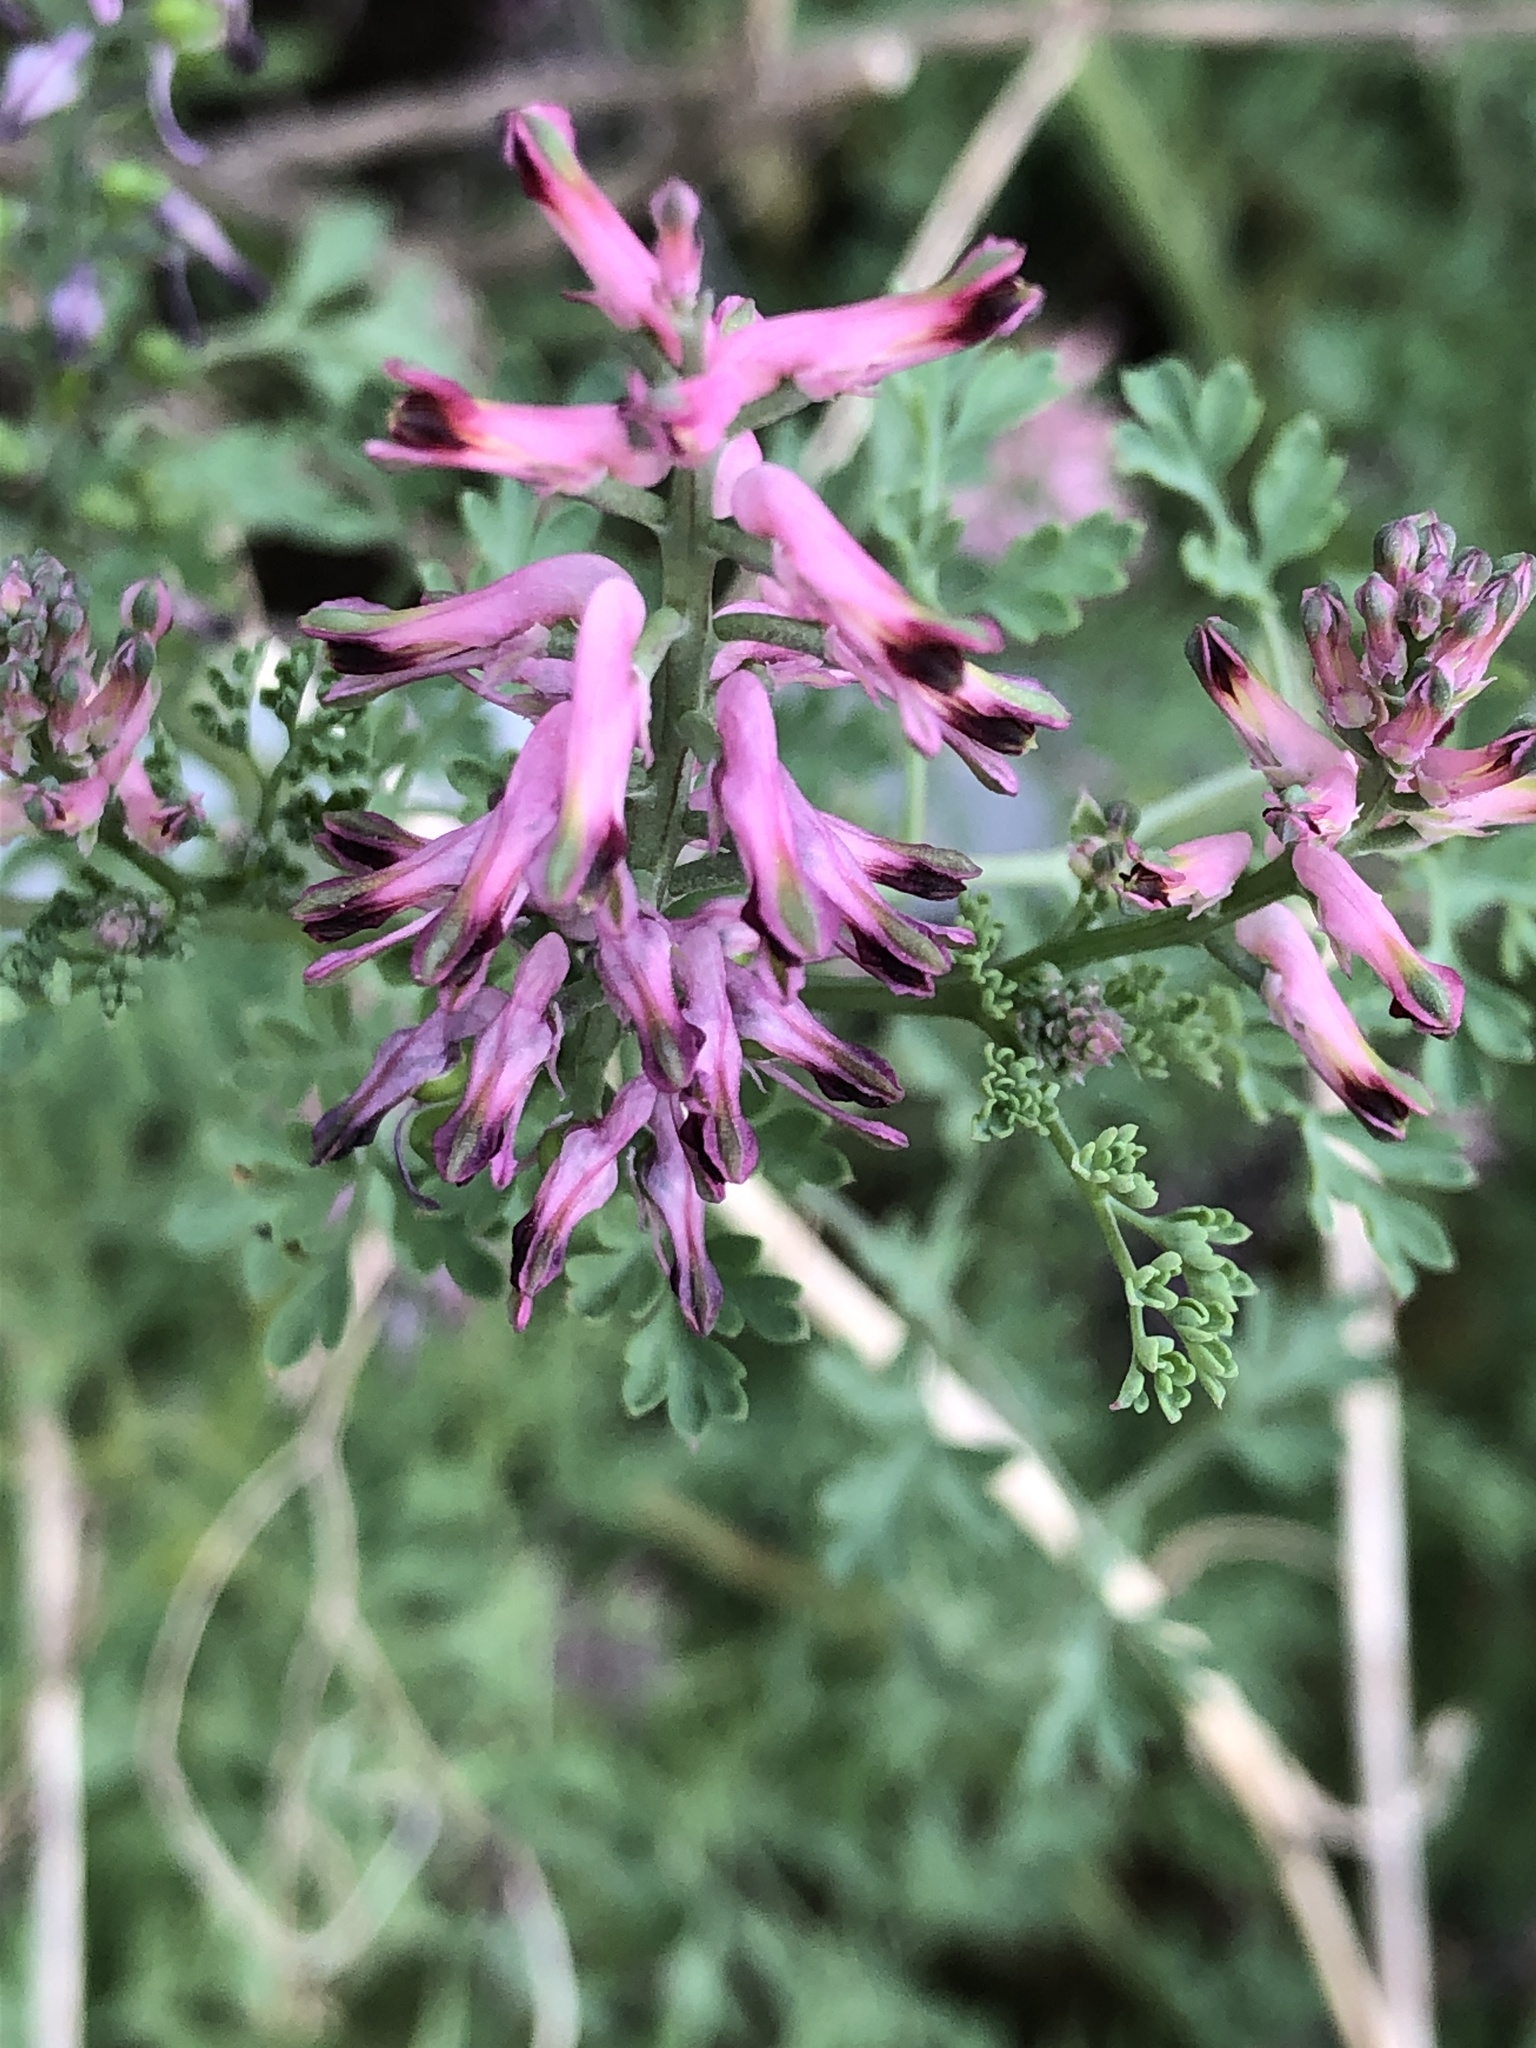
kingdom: Plantae
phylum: Tracheophyta
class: Magnoliopsida
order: Ranunculales
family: Papaveraceae
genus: Fumaria
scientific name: Fumaria officinalis
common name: Common fumitory
